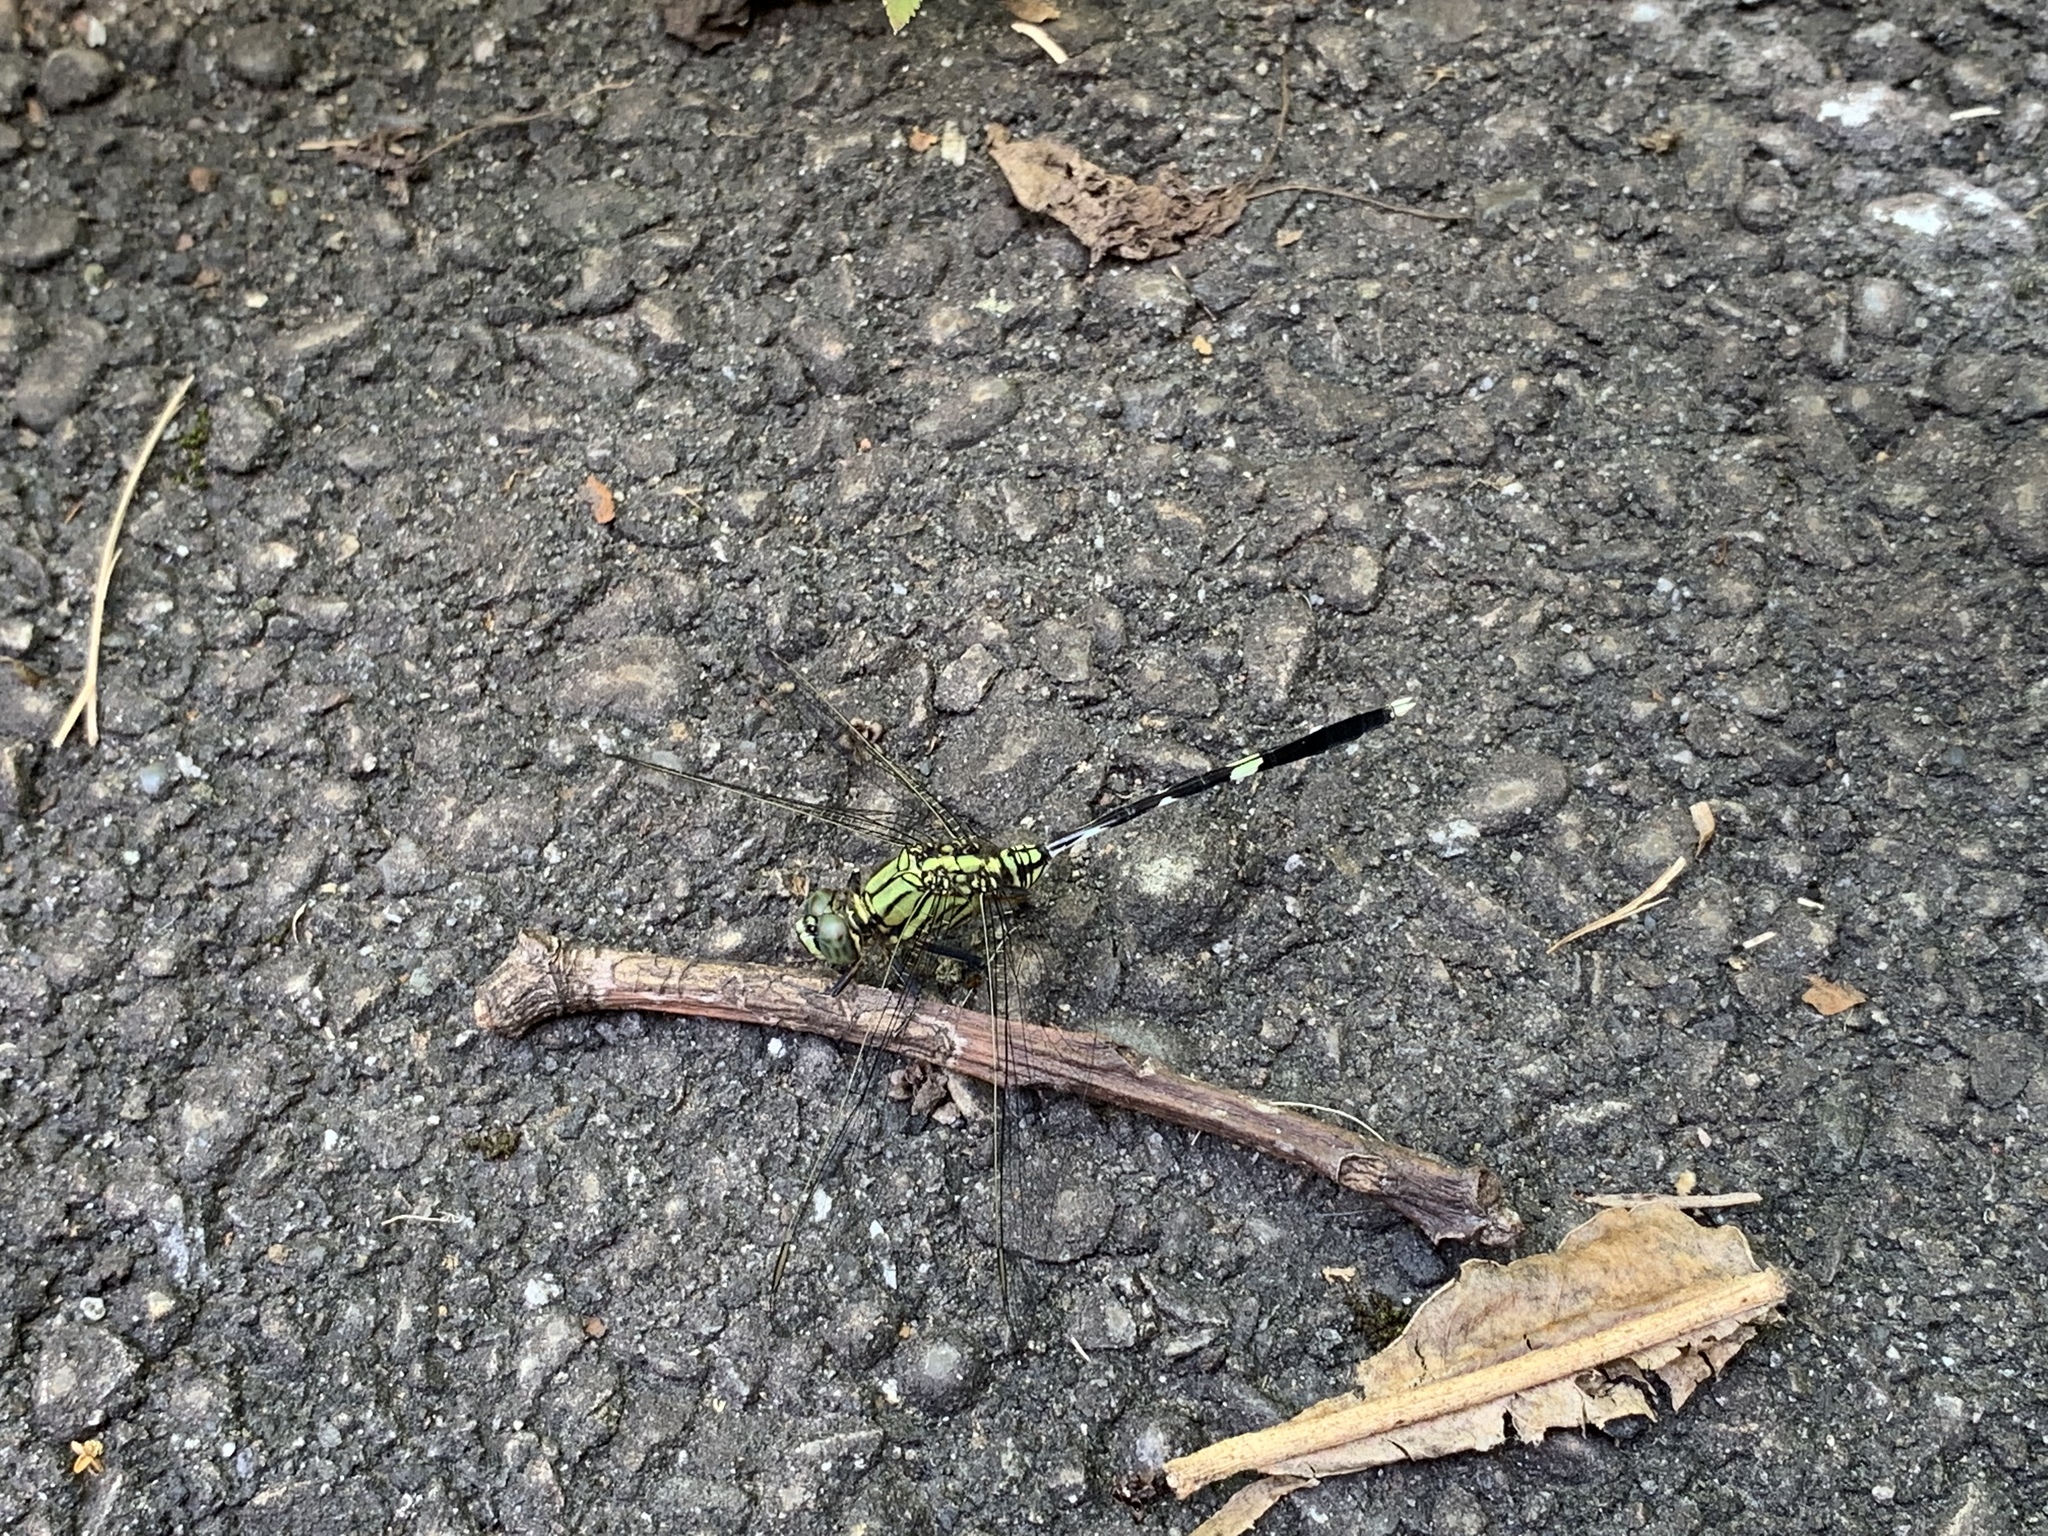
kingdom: Animalia
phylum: Arthropoda
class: Insecta
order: Odonata
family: Libellulidae
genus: Orthetrum
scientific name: Orthetrum sabina
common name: Slender skimmer
